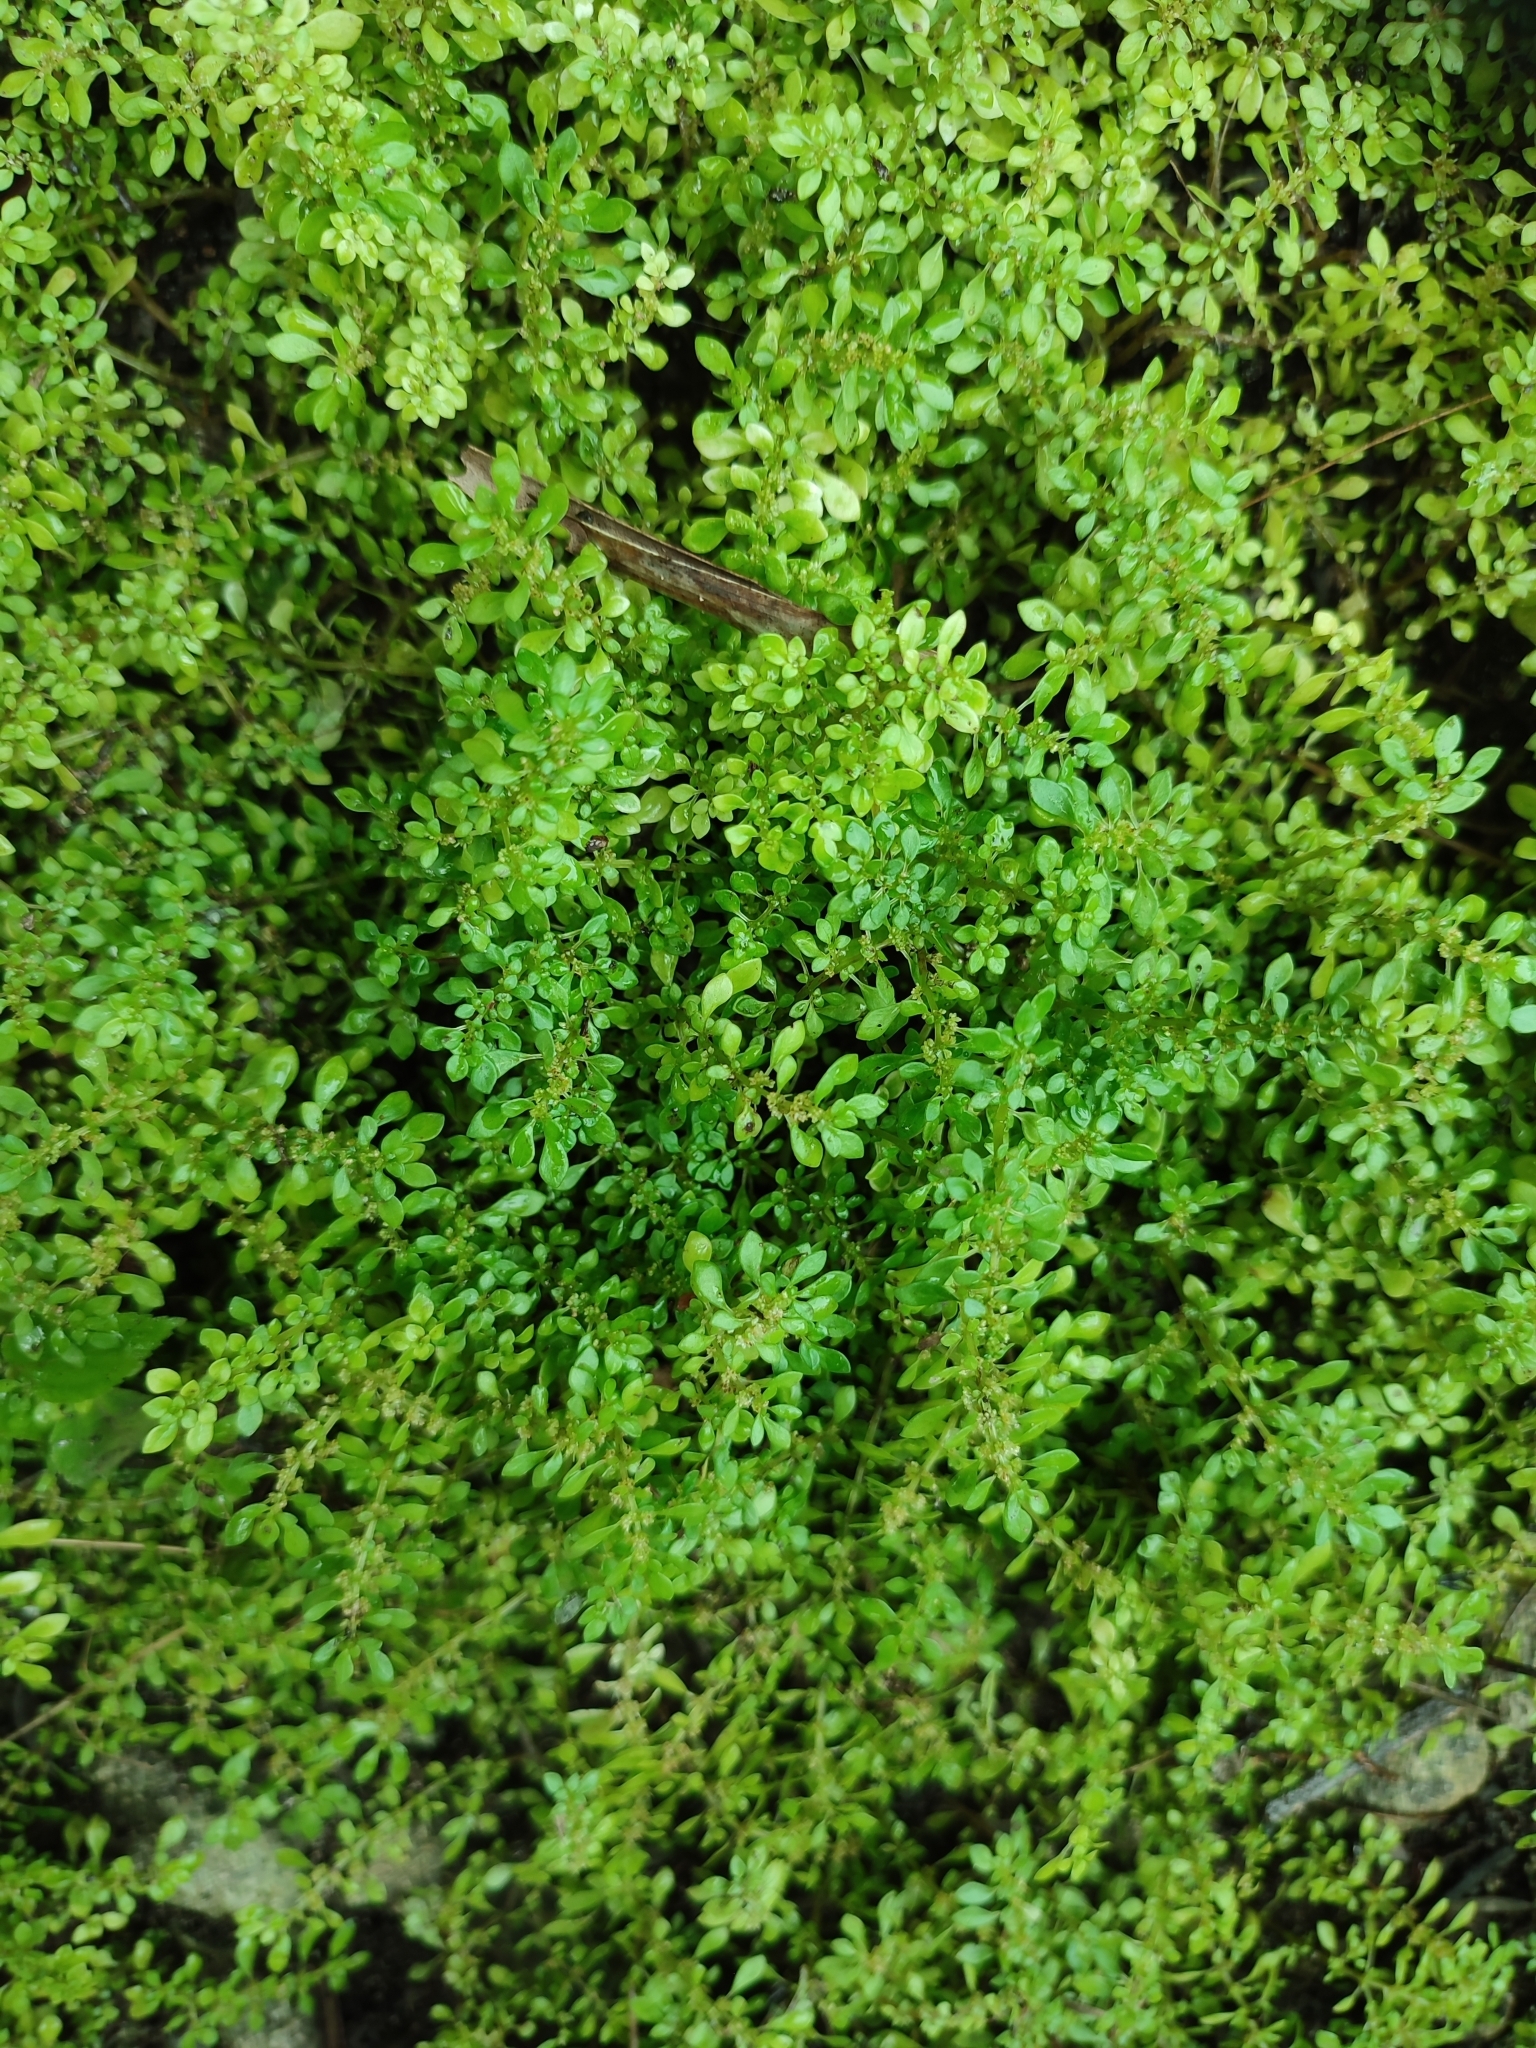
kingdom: Plantae
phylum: Tracheophyta
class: Magnoliopsida
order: Rosales
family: Urticaceae
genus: Pilea
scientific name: Pilea microphylla
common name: Artillery-plant
